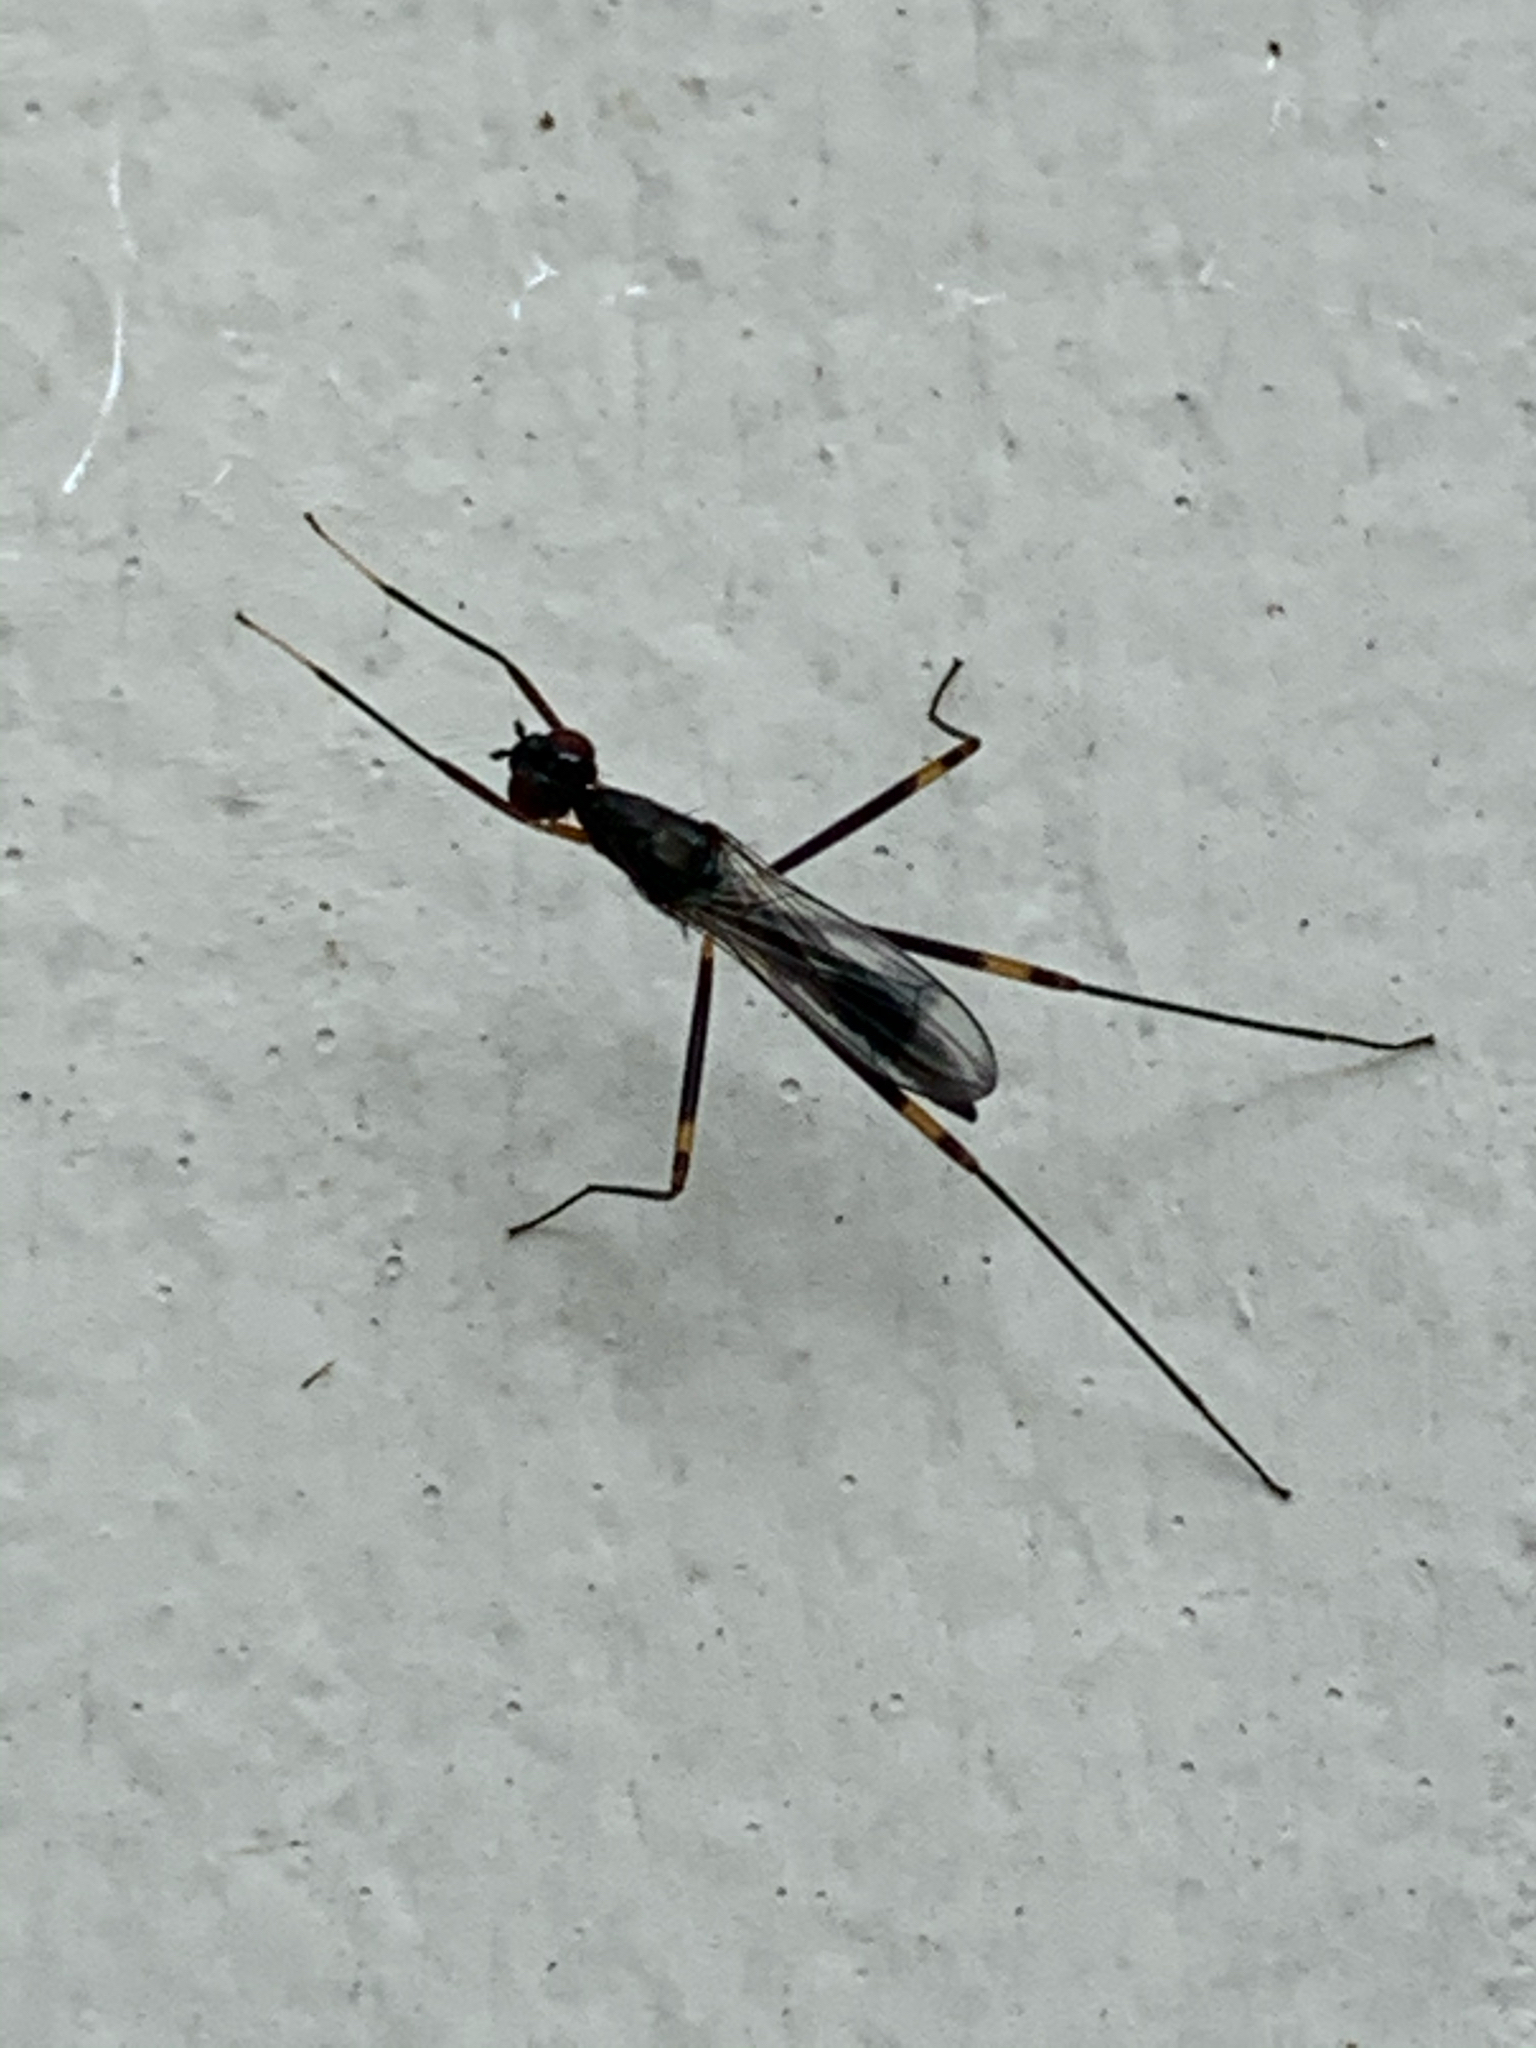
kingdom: Animalia
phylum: Arthropoda
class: Insecta
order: Diptera
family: Micropezidae
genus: Rainieria
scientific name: Rainieria antennaepes
